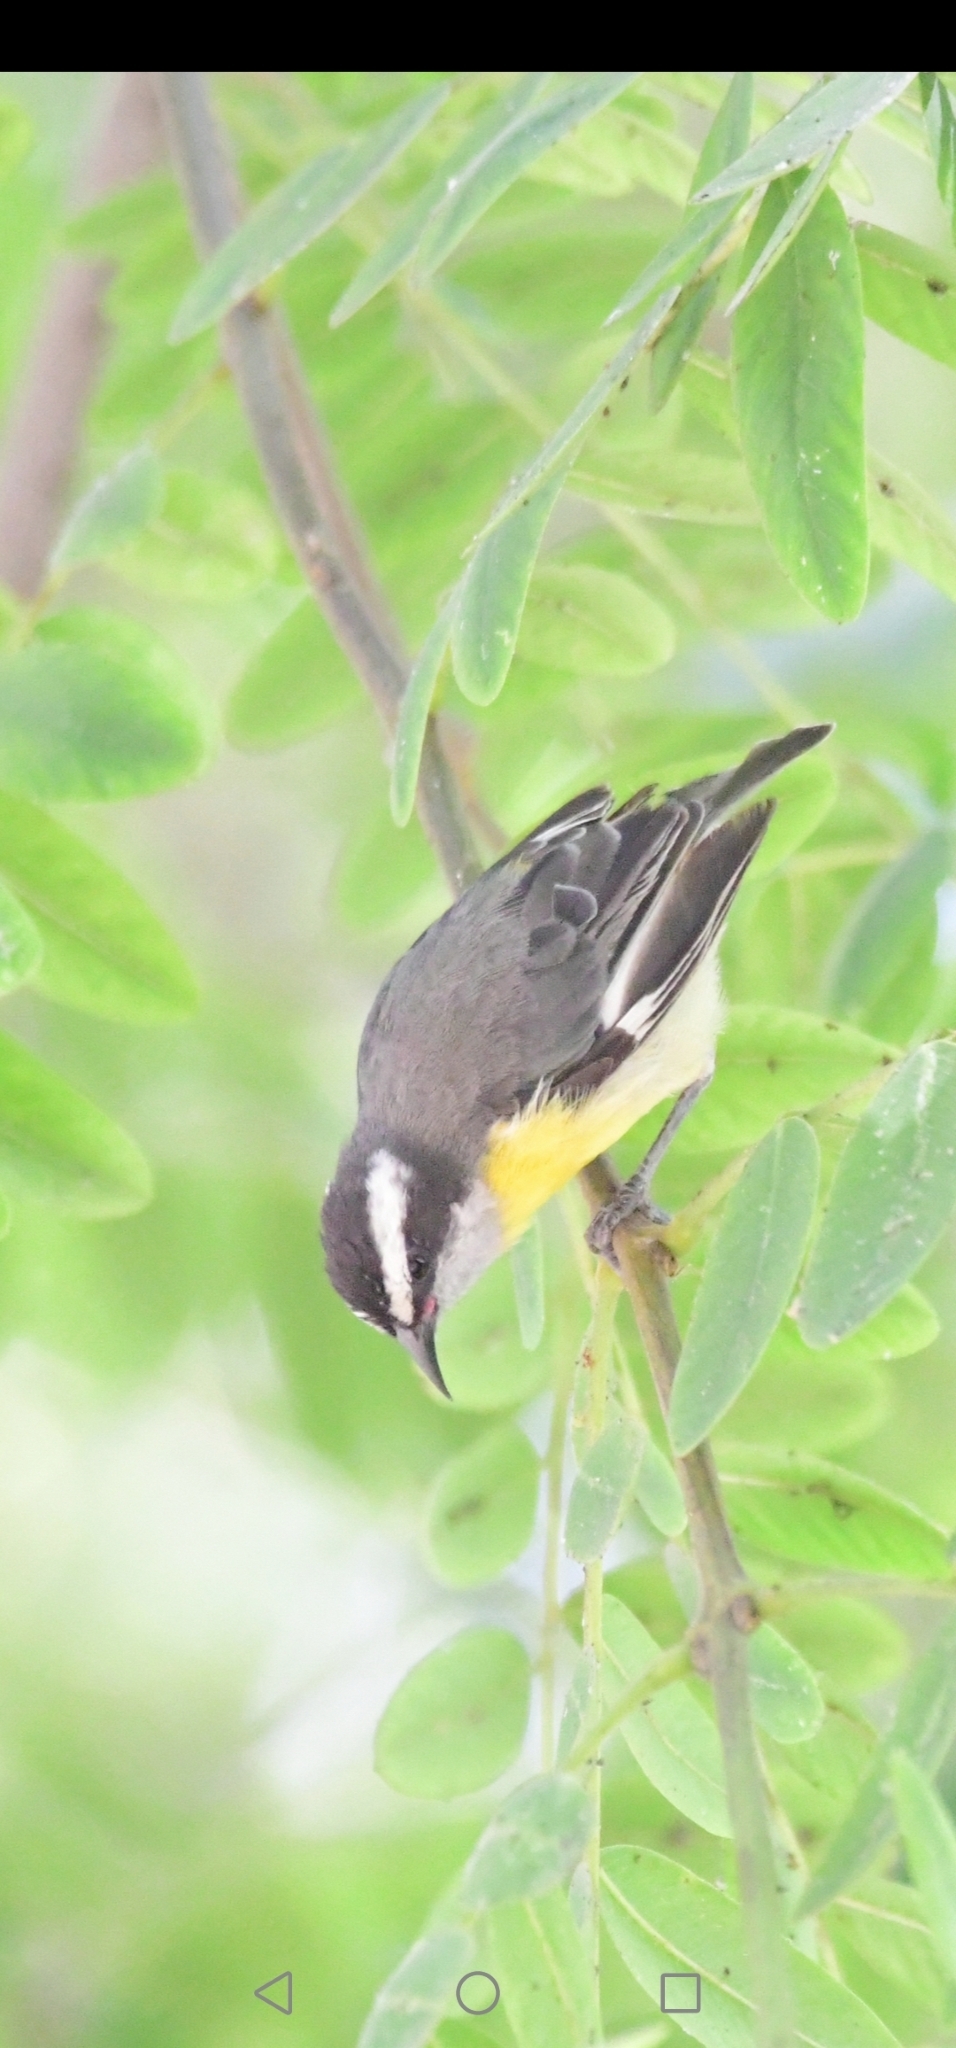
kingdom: Animalia
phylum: Chordata
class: Aves
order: Passeriformes
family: Thraupidae
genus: Coereba
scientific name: Coereba flaveola
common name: Bananaquit
